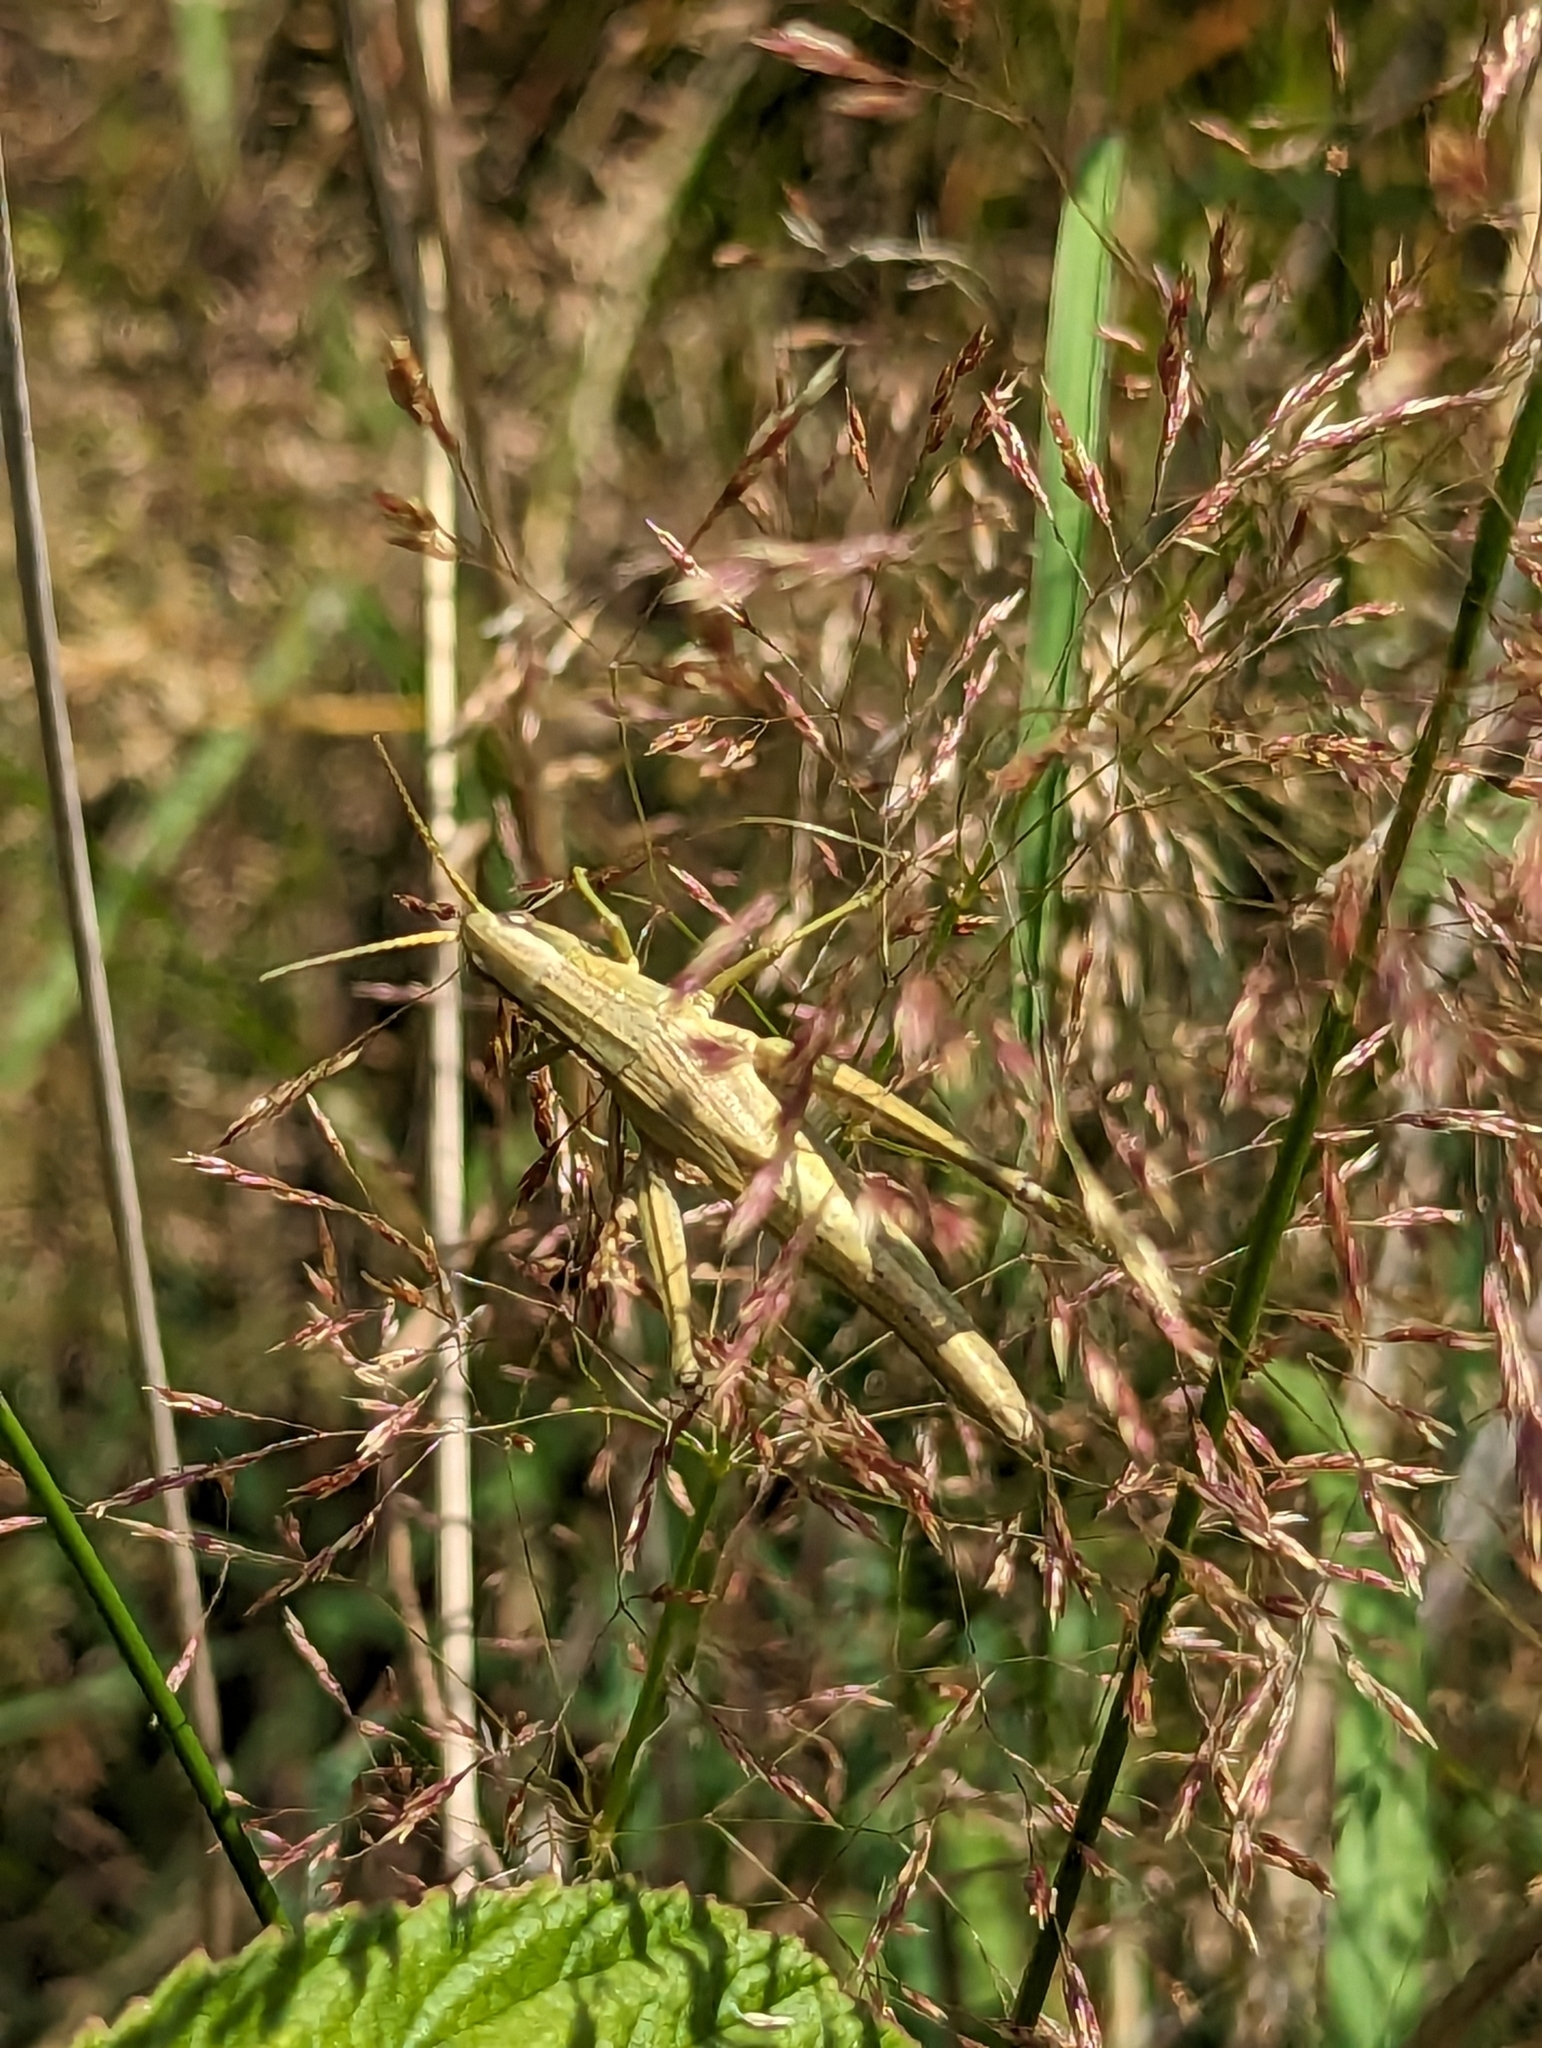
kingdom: Animalia
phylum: Arthropoda
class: Insecta
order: Orthoptera
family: Acrididae
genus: Chrysochraon
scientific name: Chrysochraon dispar
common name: Large gold grasshopper
